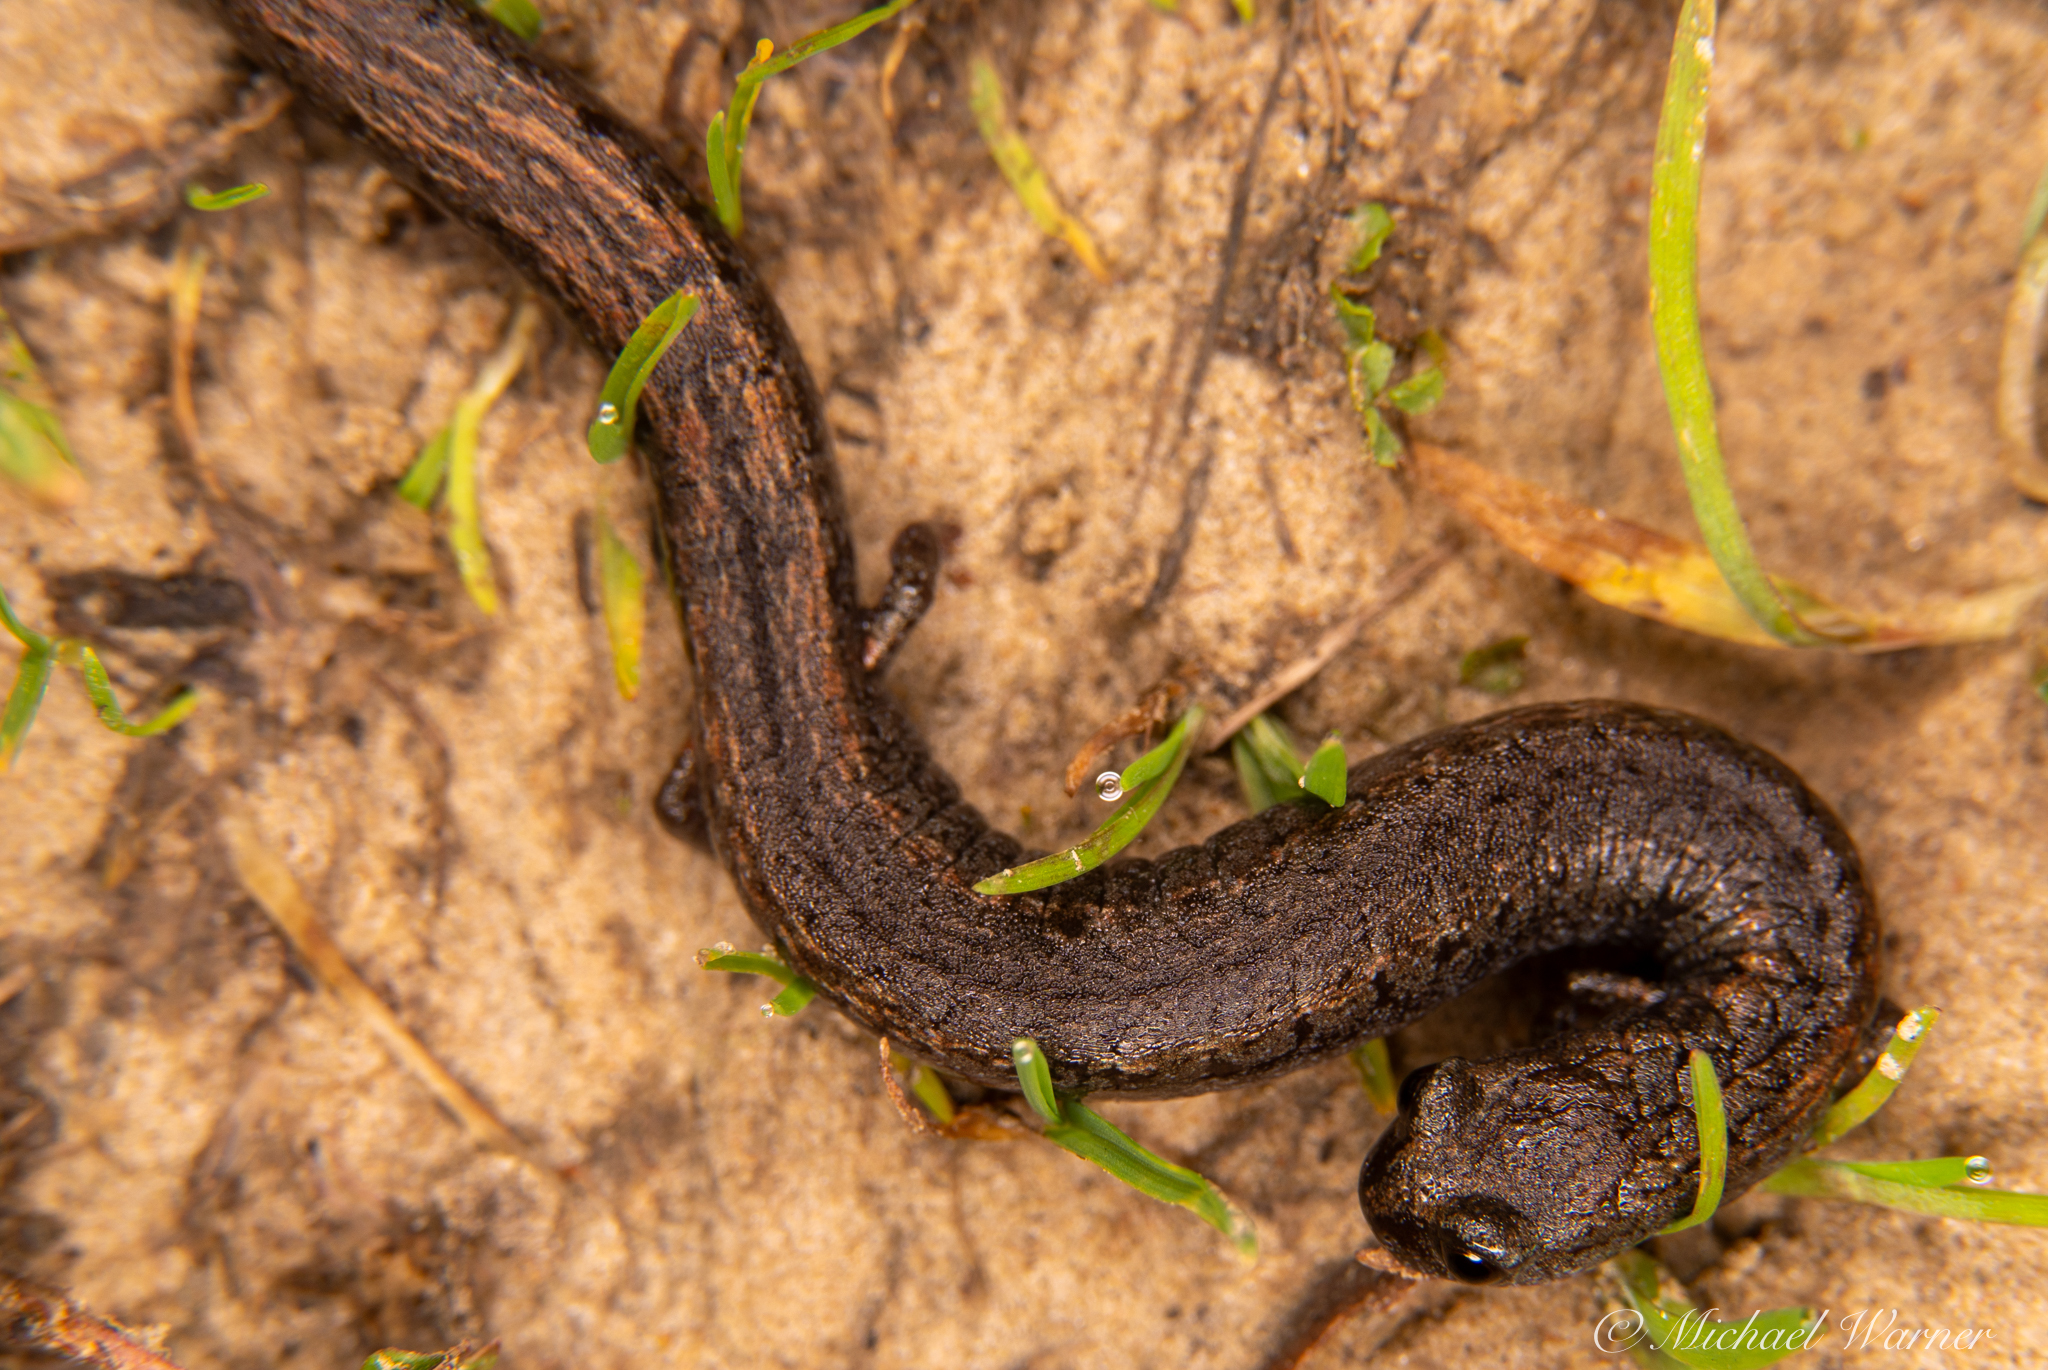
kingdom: Animalia
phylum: Chordata
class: Amphibia
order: Caudata
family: Plethodontidae
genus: Batrachoseps
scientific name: Batrachoseps attenuatus
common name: California slender salamander
